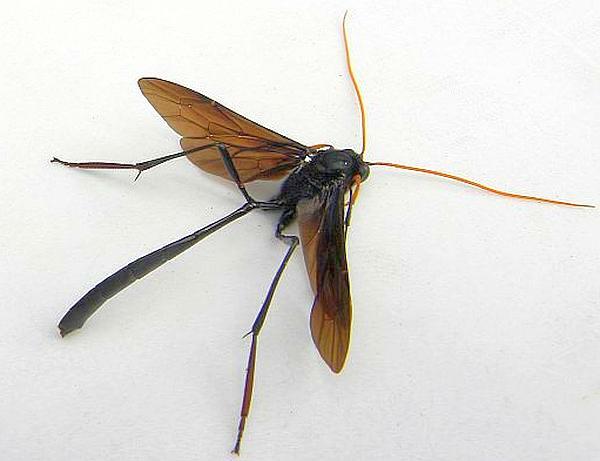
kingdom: Animalia
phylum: Arthropoda
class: Insecta
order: Hymenoptera
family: Ichneumonidae
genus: Heteropelma
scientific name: Heteropelma datanae
